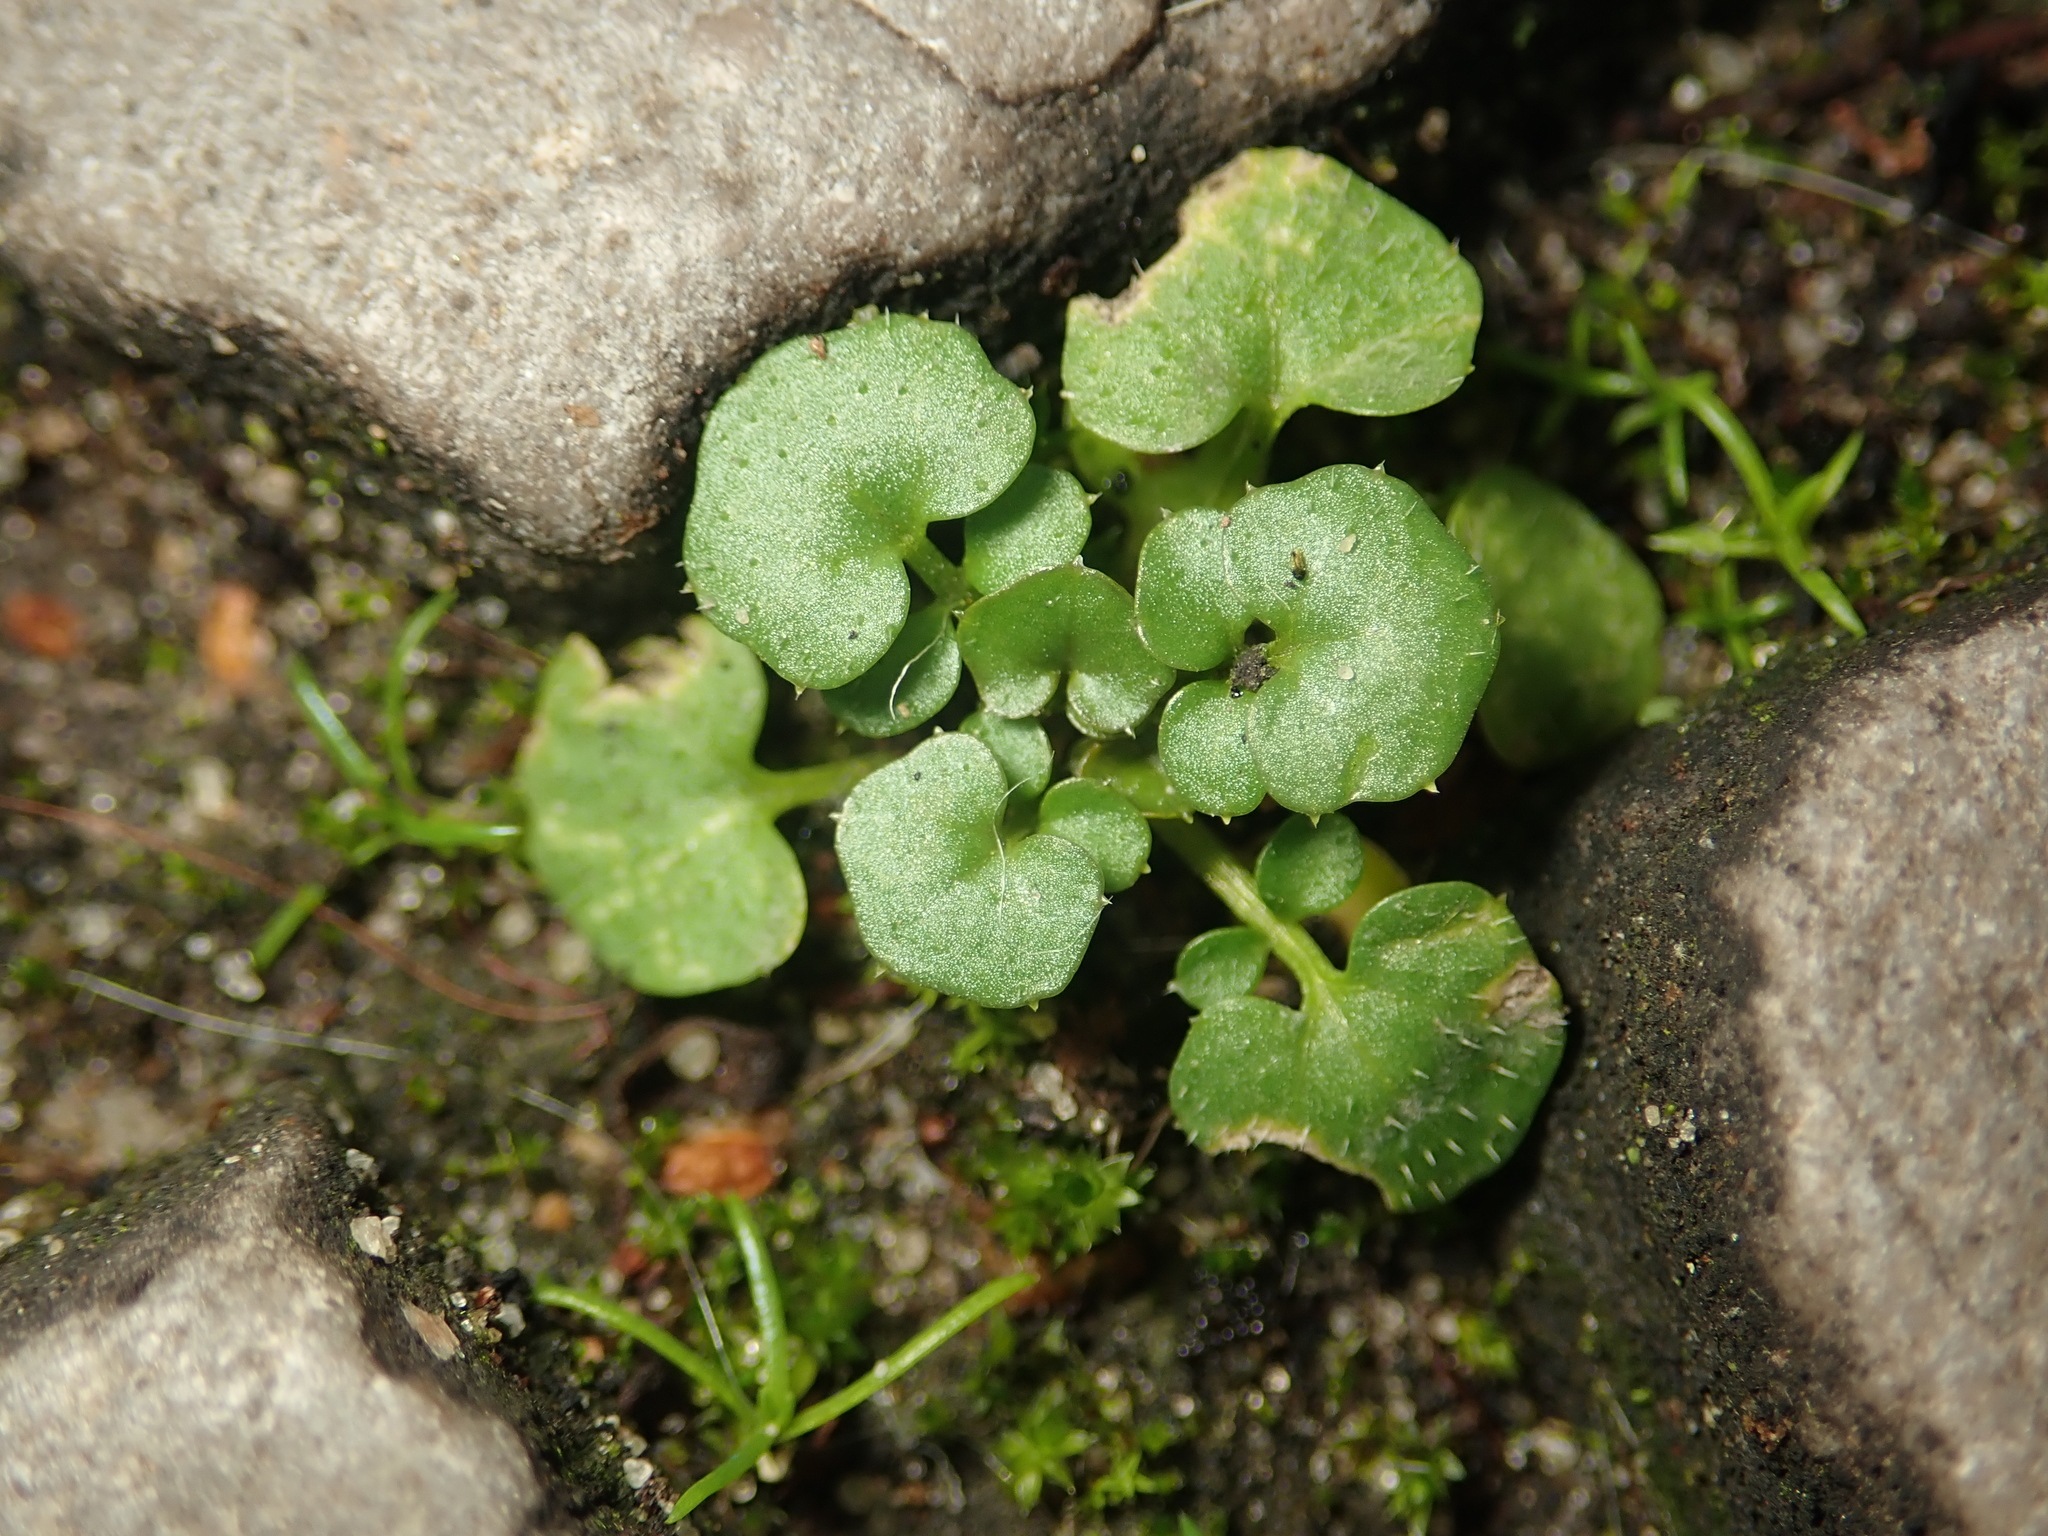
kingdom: Plantae
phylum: Tracheophyta
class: Magnoliopsida
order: Brassicales
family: Brassicaceae
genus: Cardamine
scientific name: Cardamine hirsuta
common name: Hairy bittercress
